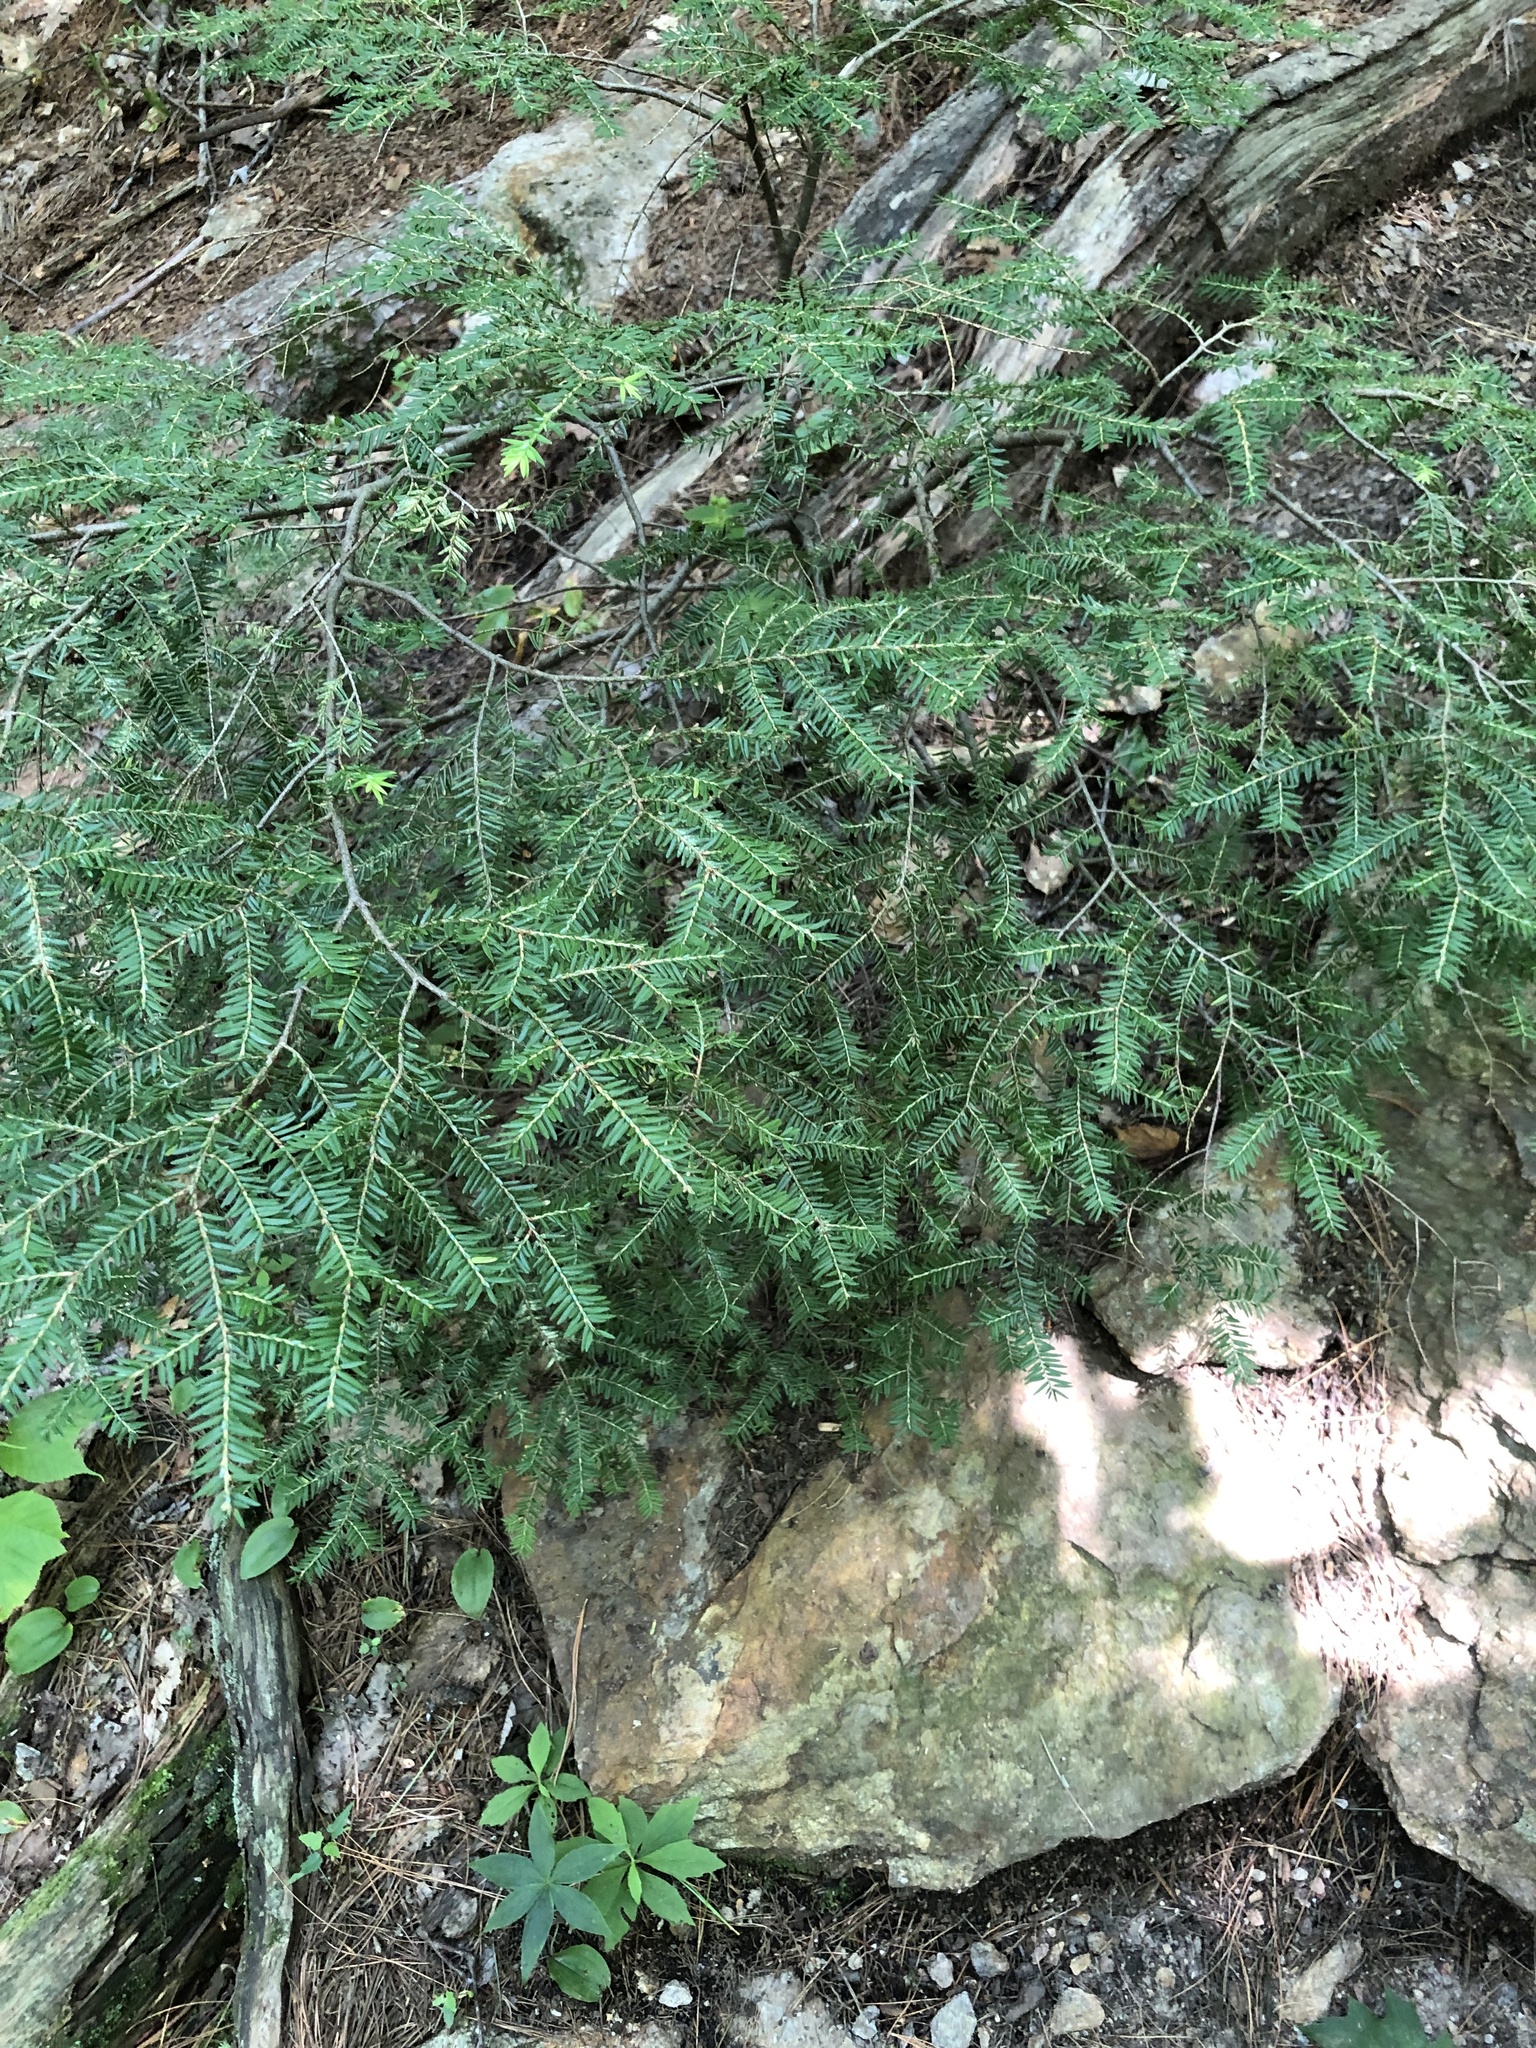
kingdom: Plantae
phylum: Tracheophyta
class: Pinopsida
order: Pinales
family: Pinaceae
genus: Tsuga
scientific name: Tsuga canadensis
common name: Eastern hemlock
